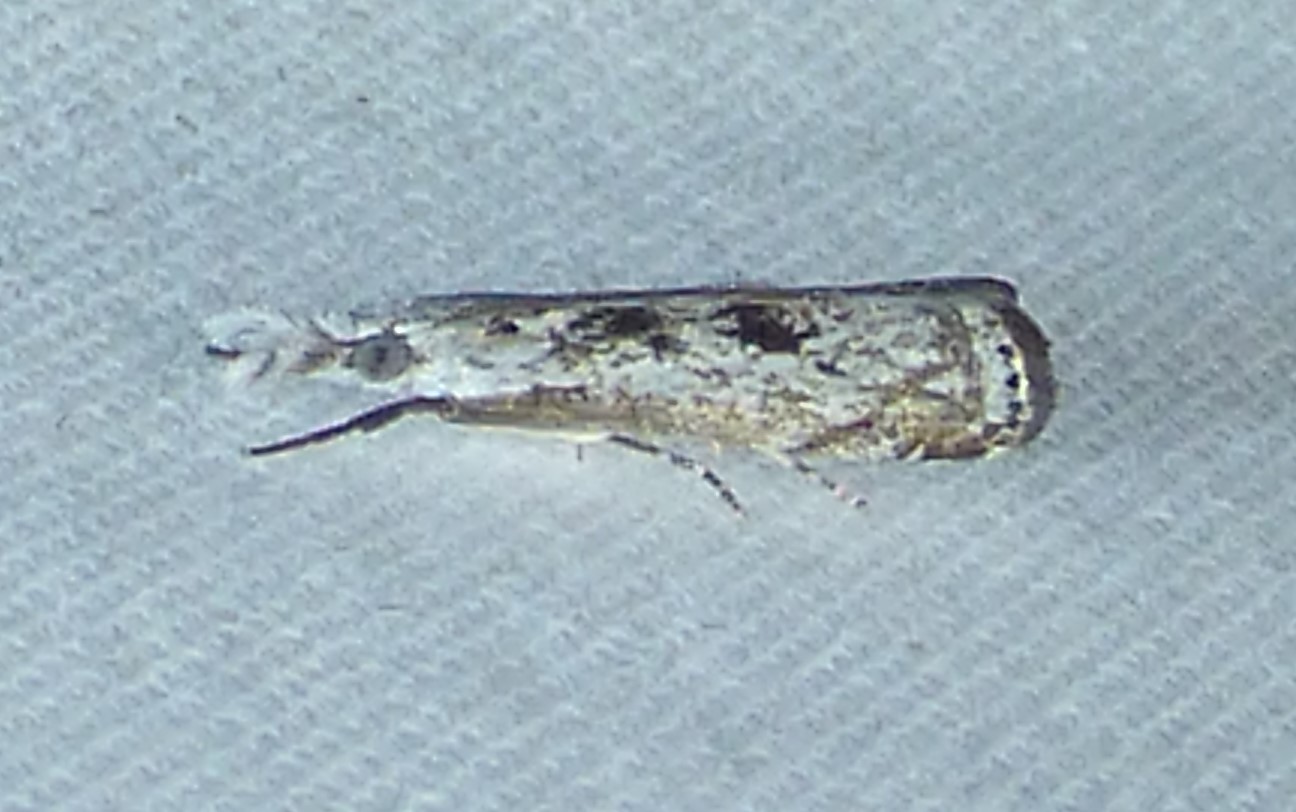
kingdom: Animalia
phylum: Arthropoda
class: Insecta
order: Lepidoptera
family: Crambidae
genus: Microcrambus
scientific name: Microcrambus immunellus
